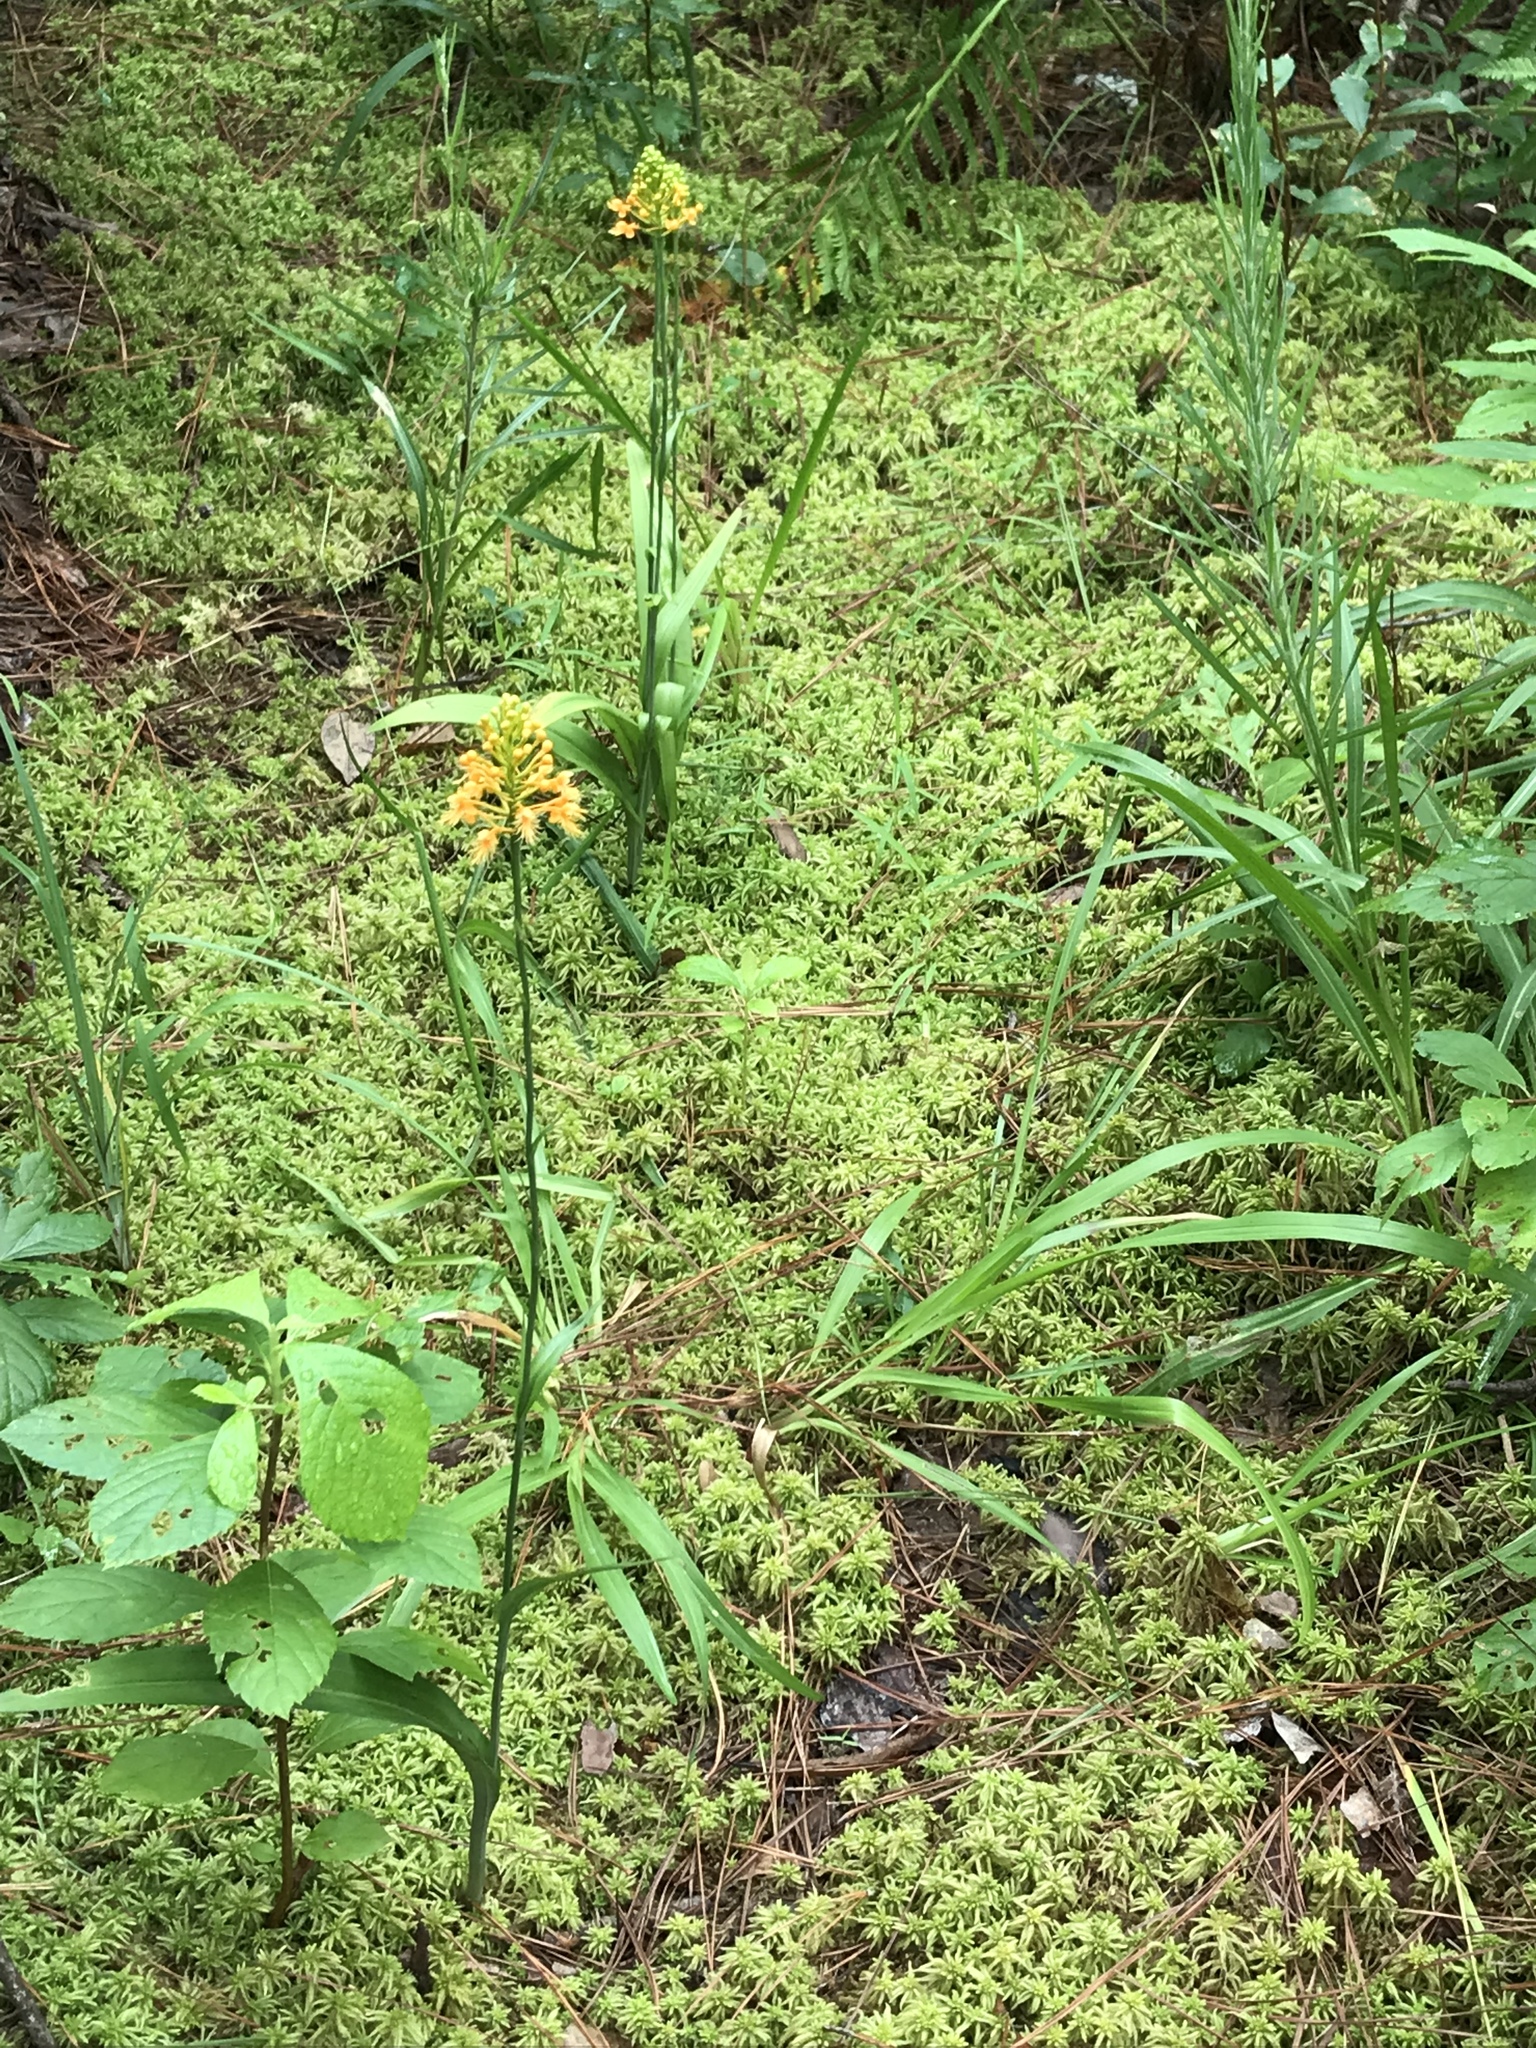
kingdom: Plantae
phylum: Tracheophyta
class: Liliopsida
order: Asparagales
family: Orchidaceae
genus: Platanthera
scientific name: Platanthera chapmanii
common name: Chapman’s fringed orchid
